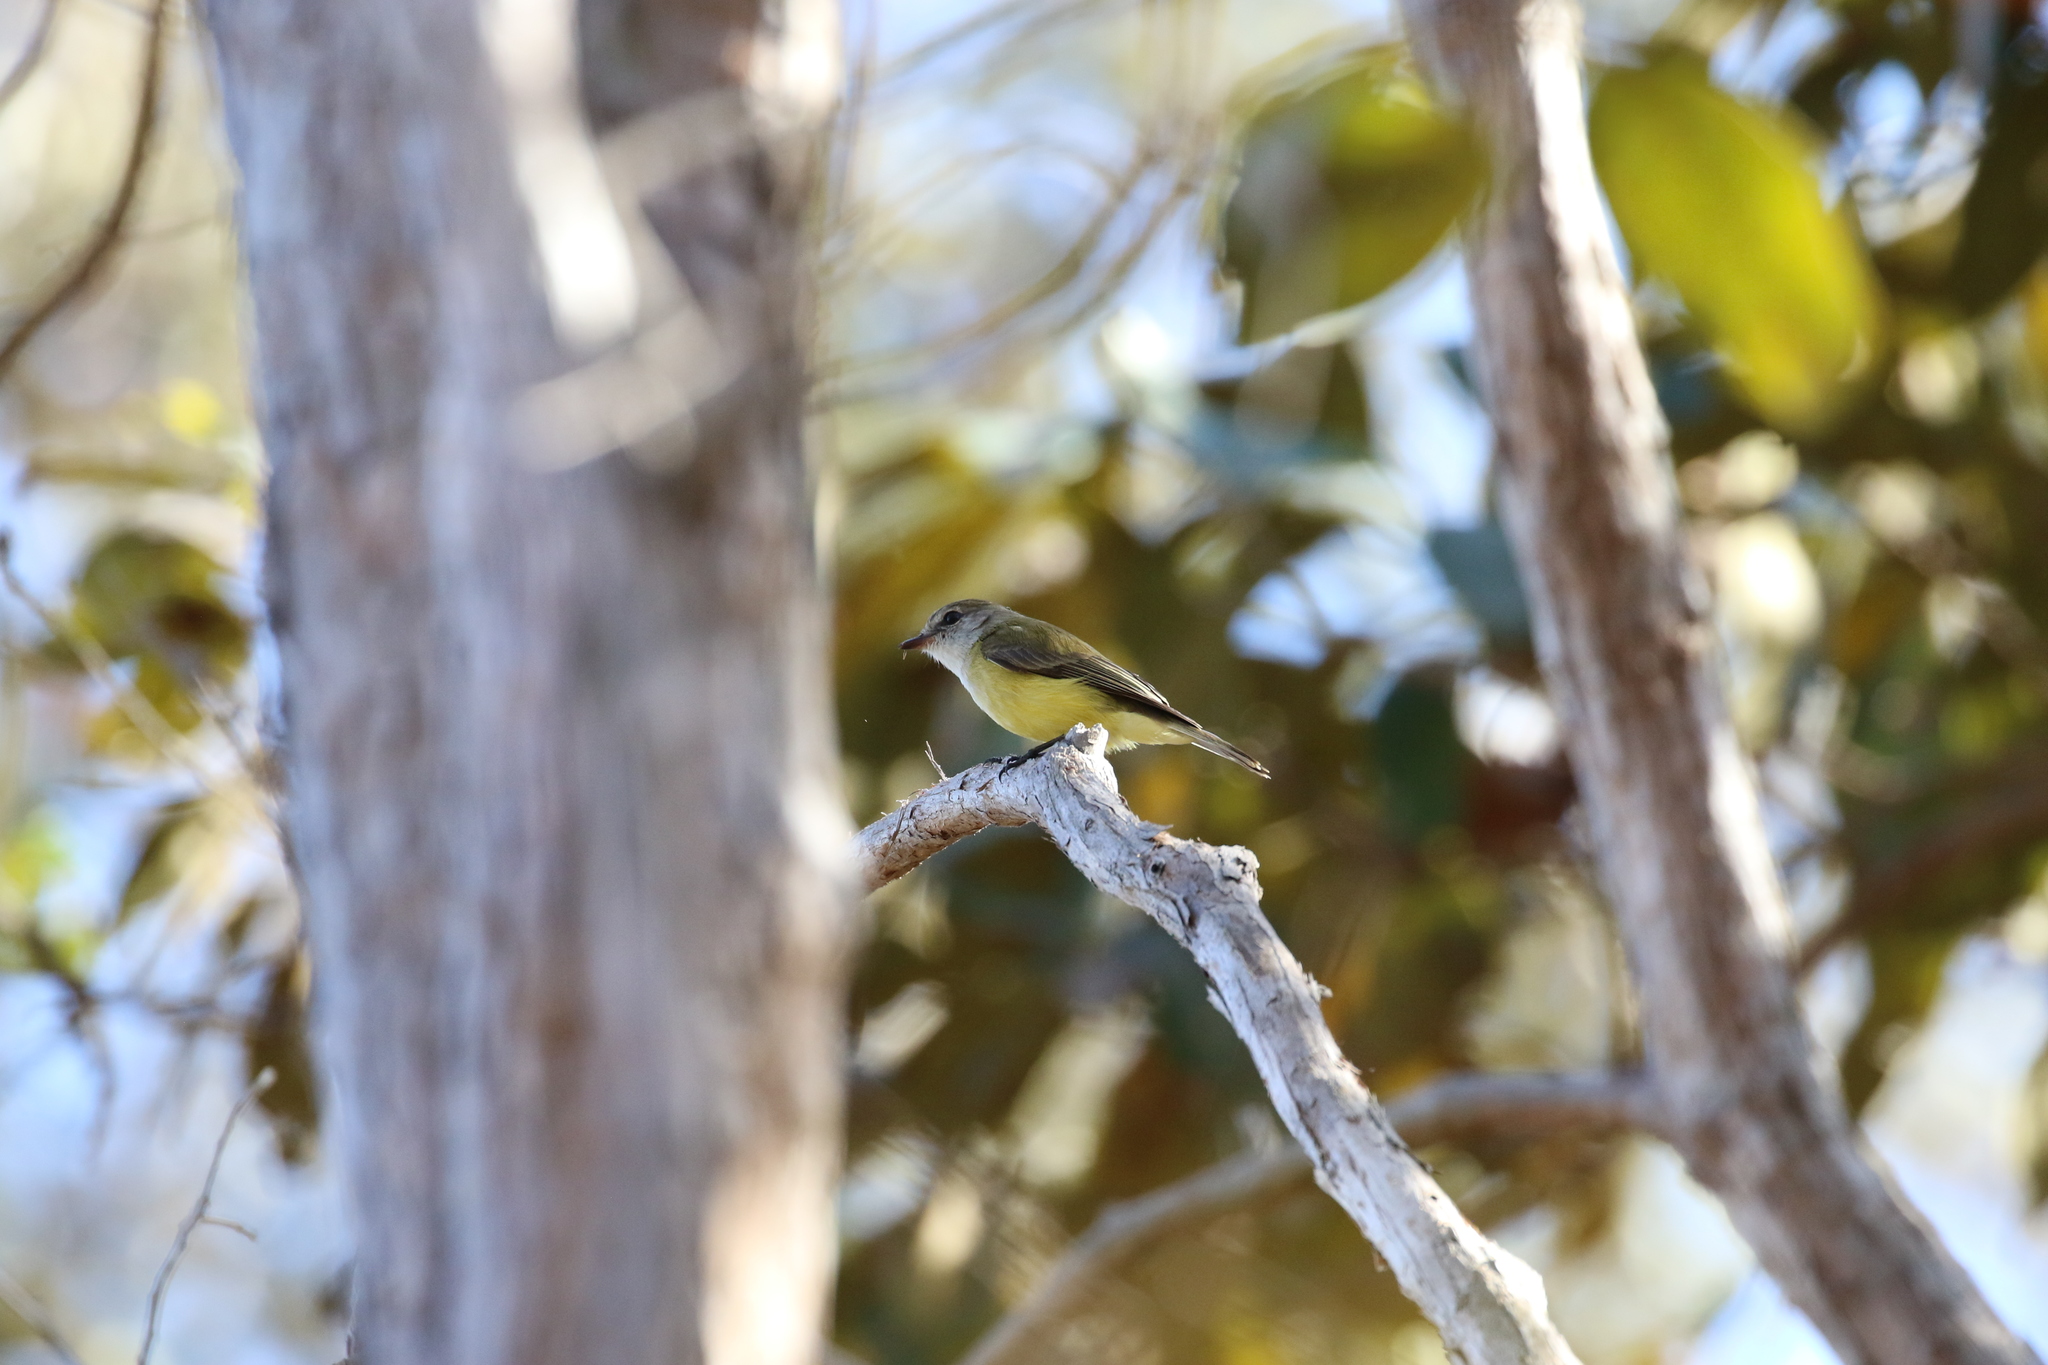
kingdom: Animalia
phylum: Chordata
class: Aves
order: Passeriformes
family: Petroicidae
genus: Microeca
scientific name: Microeca flavigaster
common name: Lemon-bellied flyrobin
